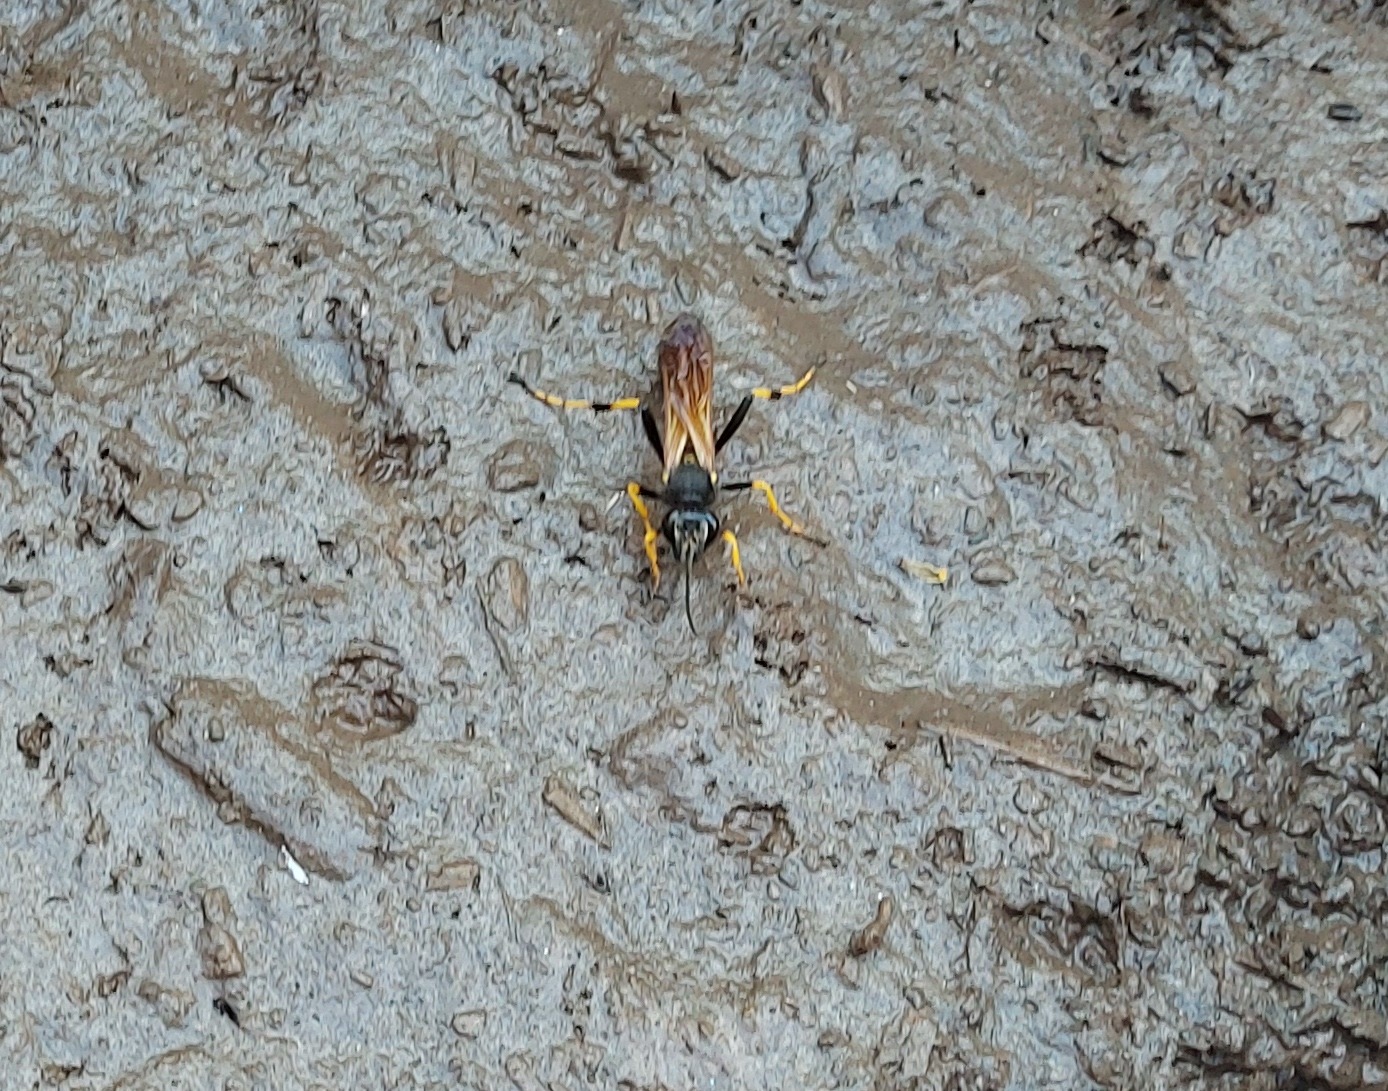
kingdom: Animalia
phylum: Arthropoda
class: Insecta
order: Hymenoptera
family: Sphecidae
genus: Sceliphron
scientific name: Sceliphron caementarium
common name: Mud dauber
